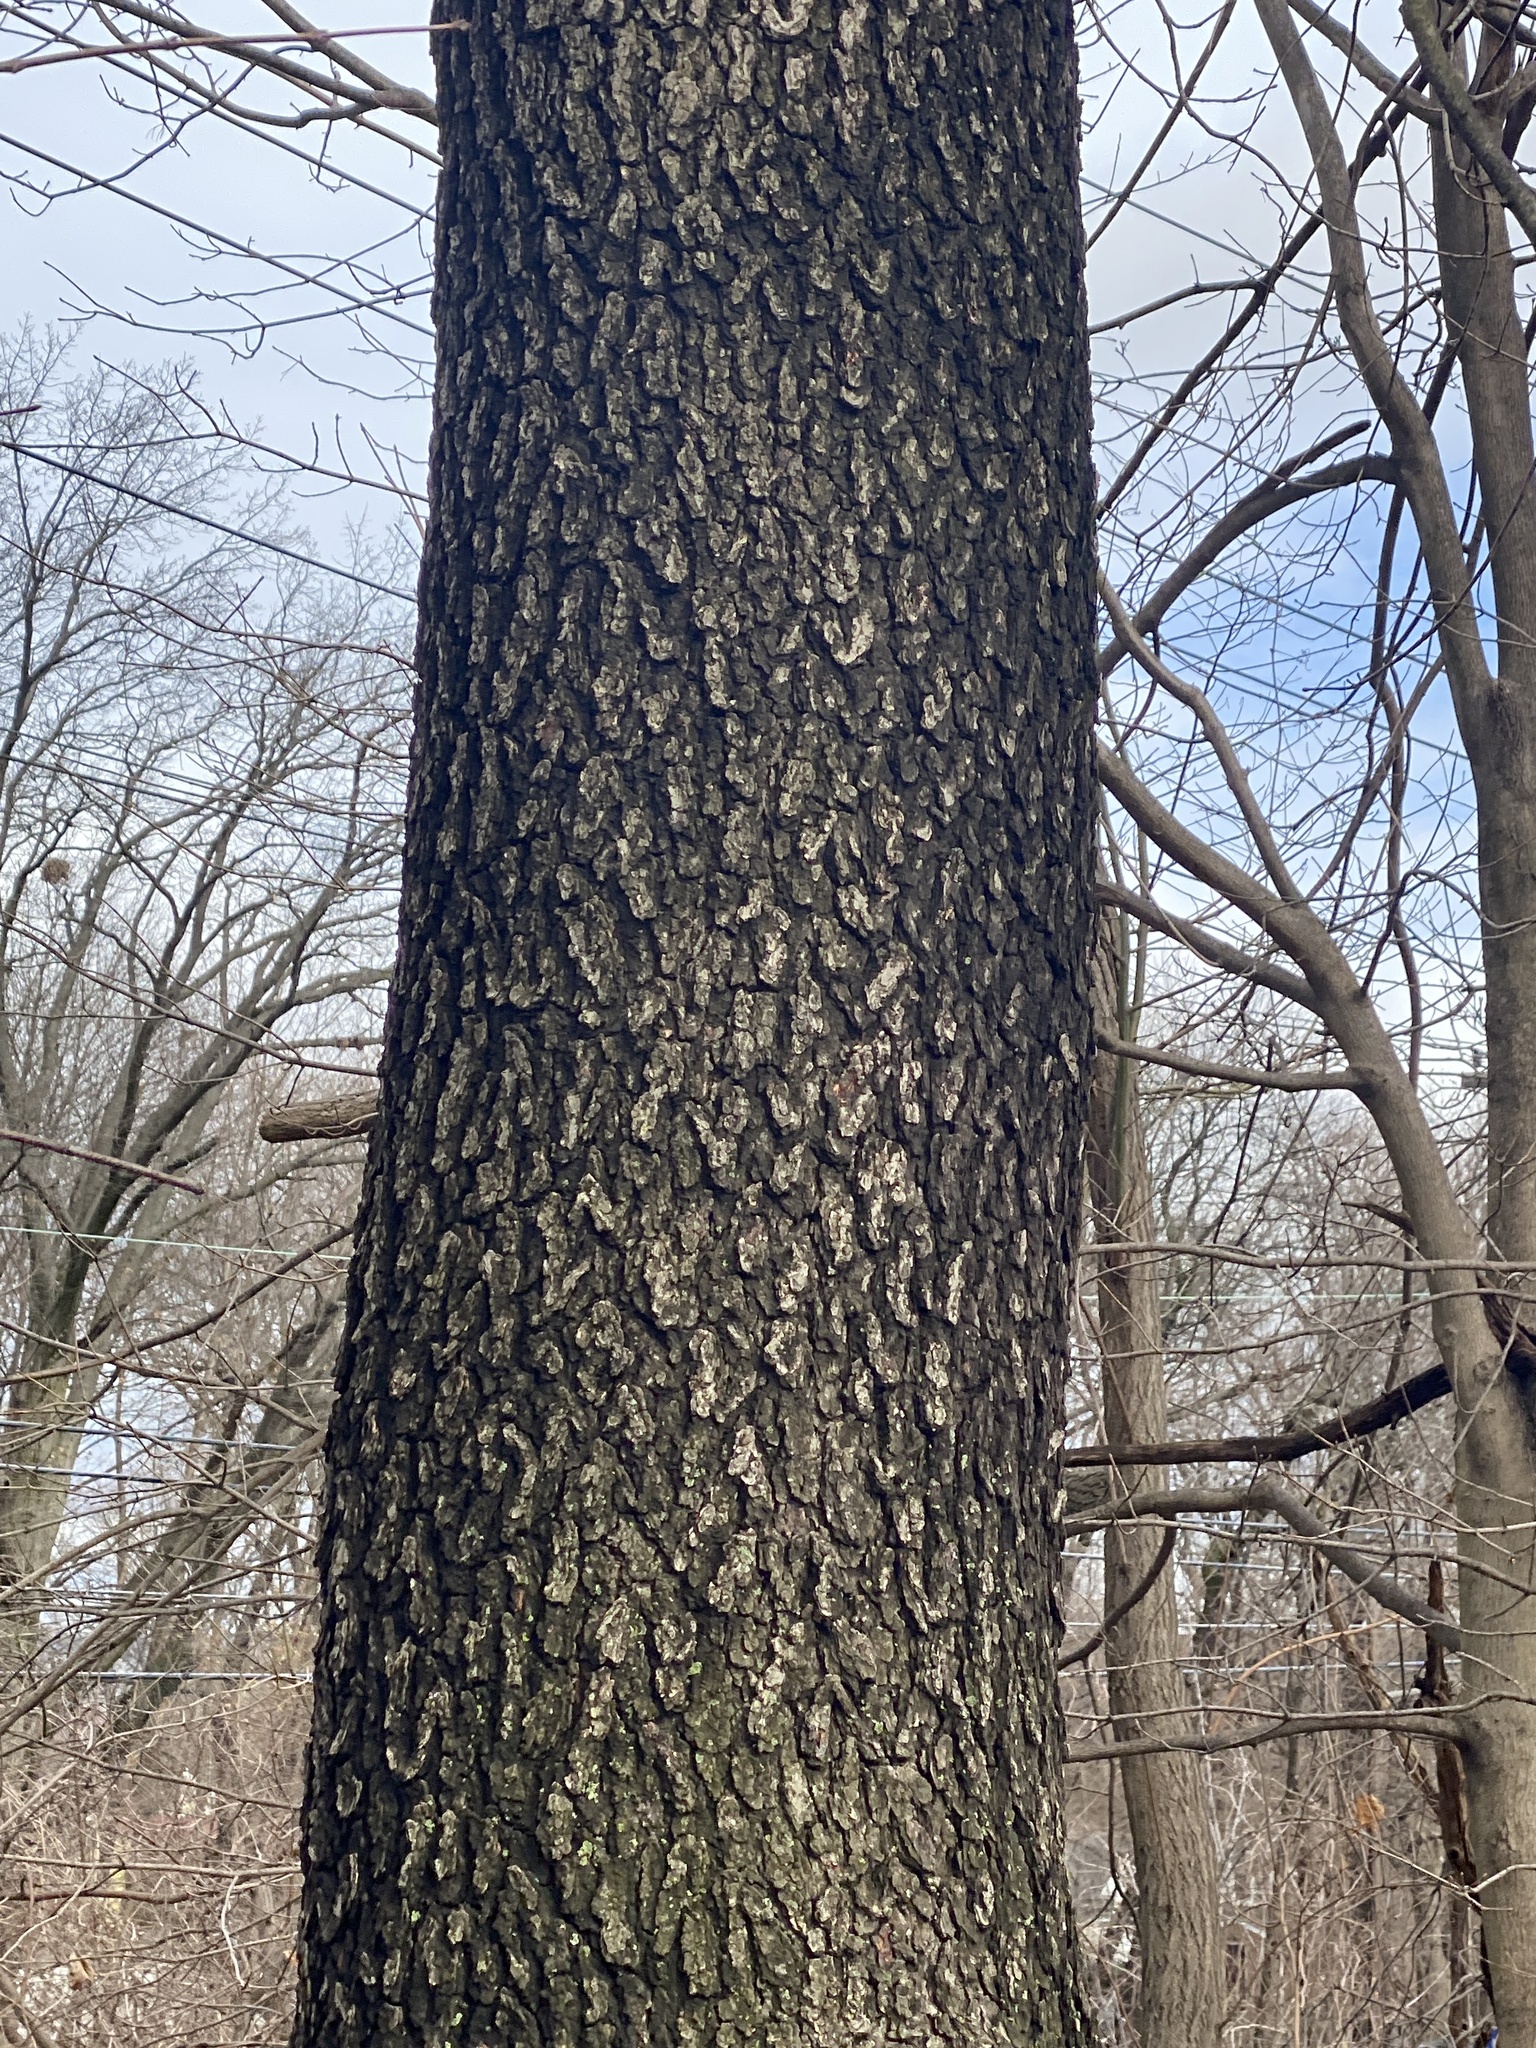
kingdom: Plantae
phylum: Tracheophyta
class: Magnoliopsida
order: Rosales
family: Rosaceae
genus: Prunus
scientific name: Prunus serotina
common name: Black cherry
